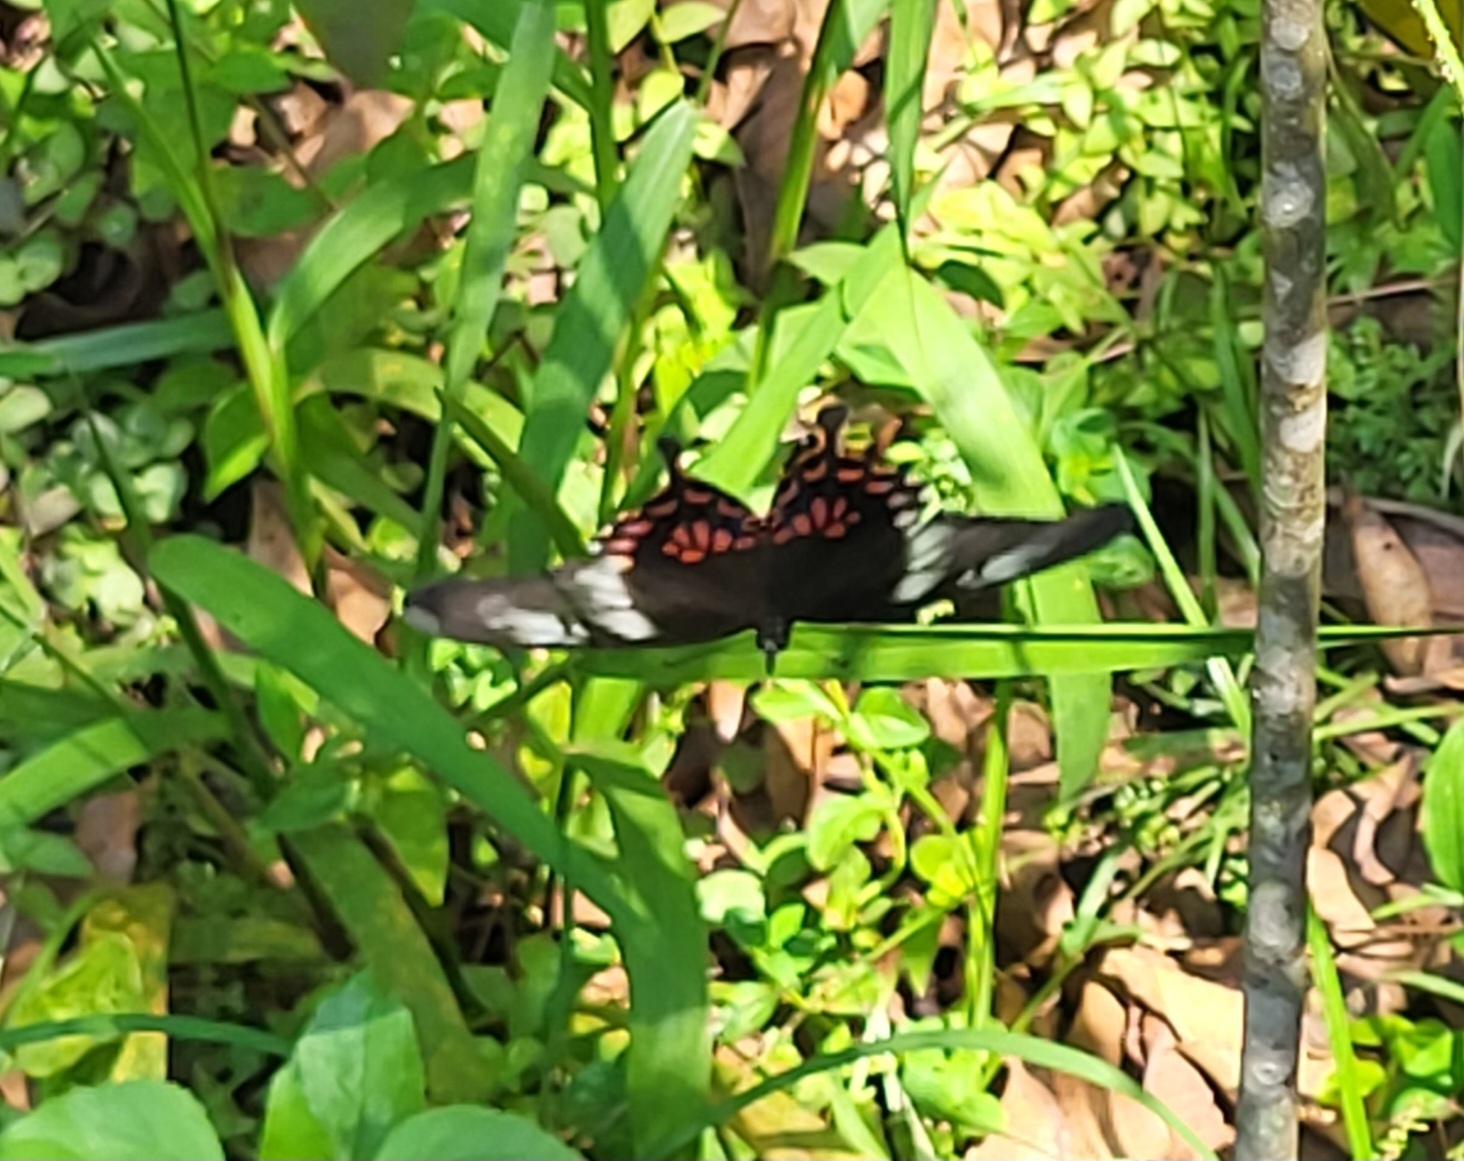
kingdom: Animalia
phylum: Arthropoda
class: Insecta
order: Lepidoptera
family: Papilionidae
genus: Papilio
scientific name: Papilio polytes
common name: Common mormon
